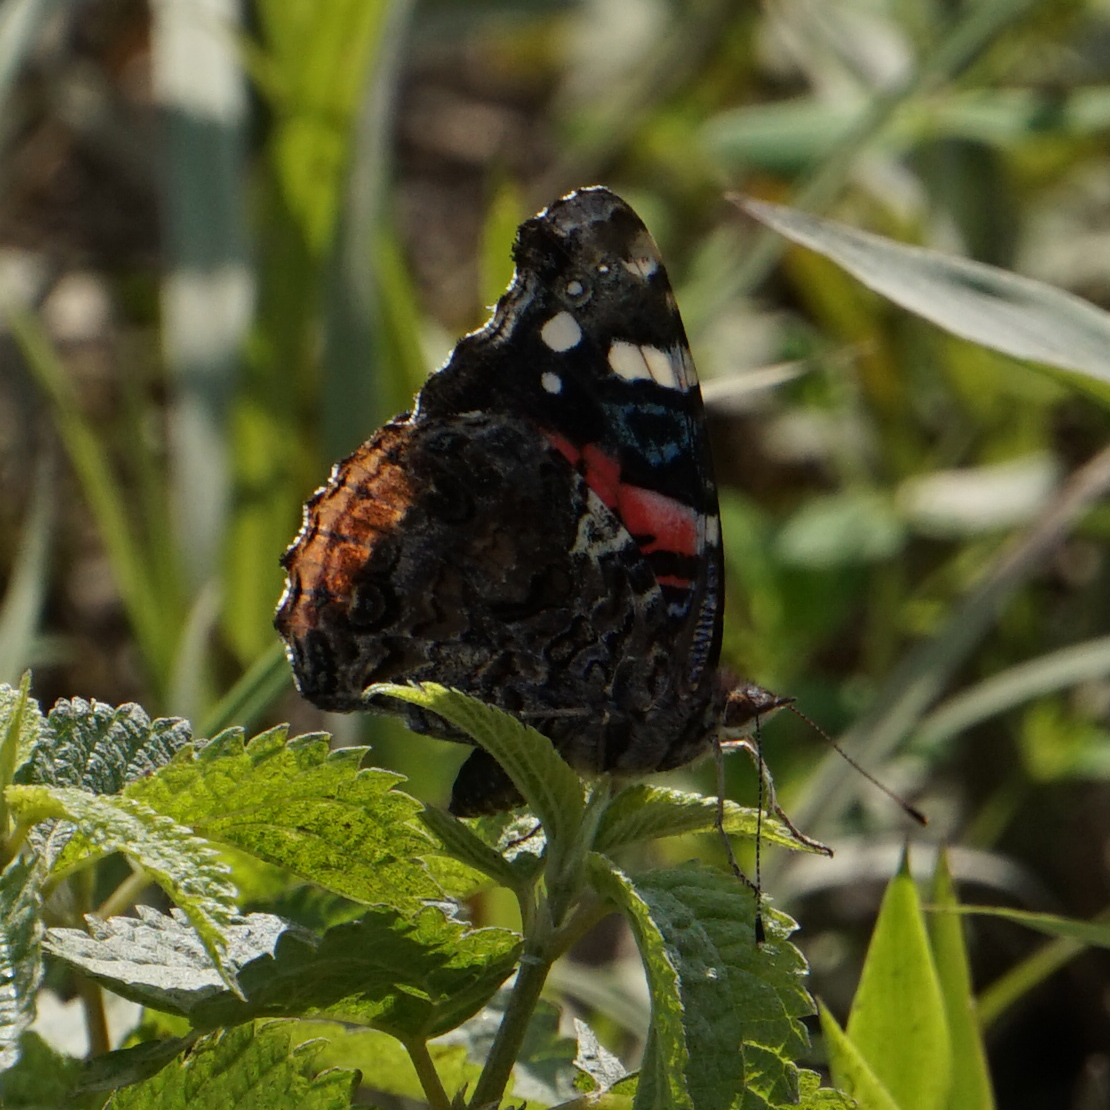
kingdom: Animalia
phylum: Arthropoda
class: Insecta
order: Lepidoptera
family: Nymphalidae
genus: Vanessa
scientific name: Vanessa atalanta
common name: Red admiral
